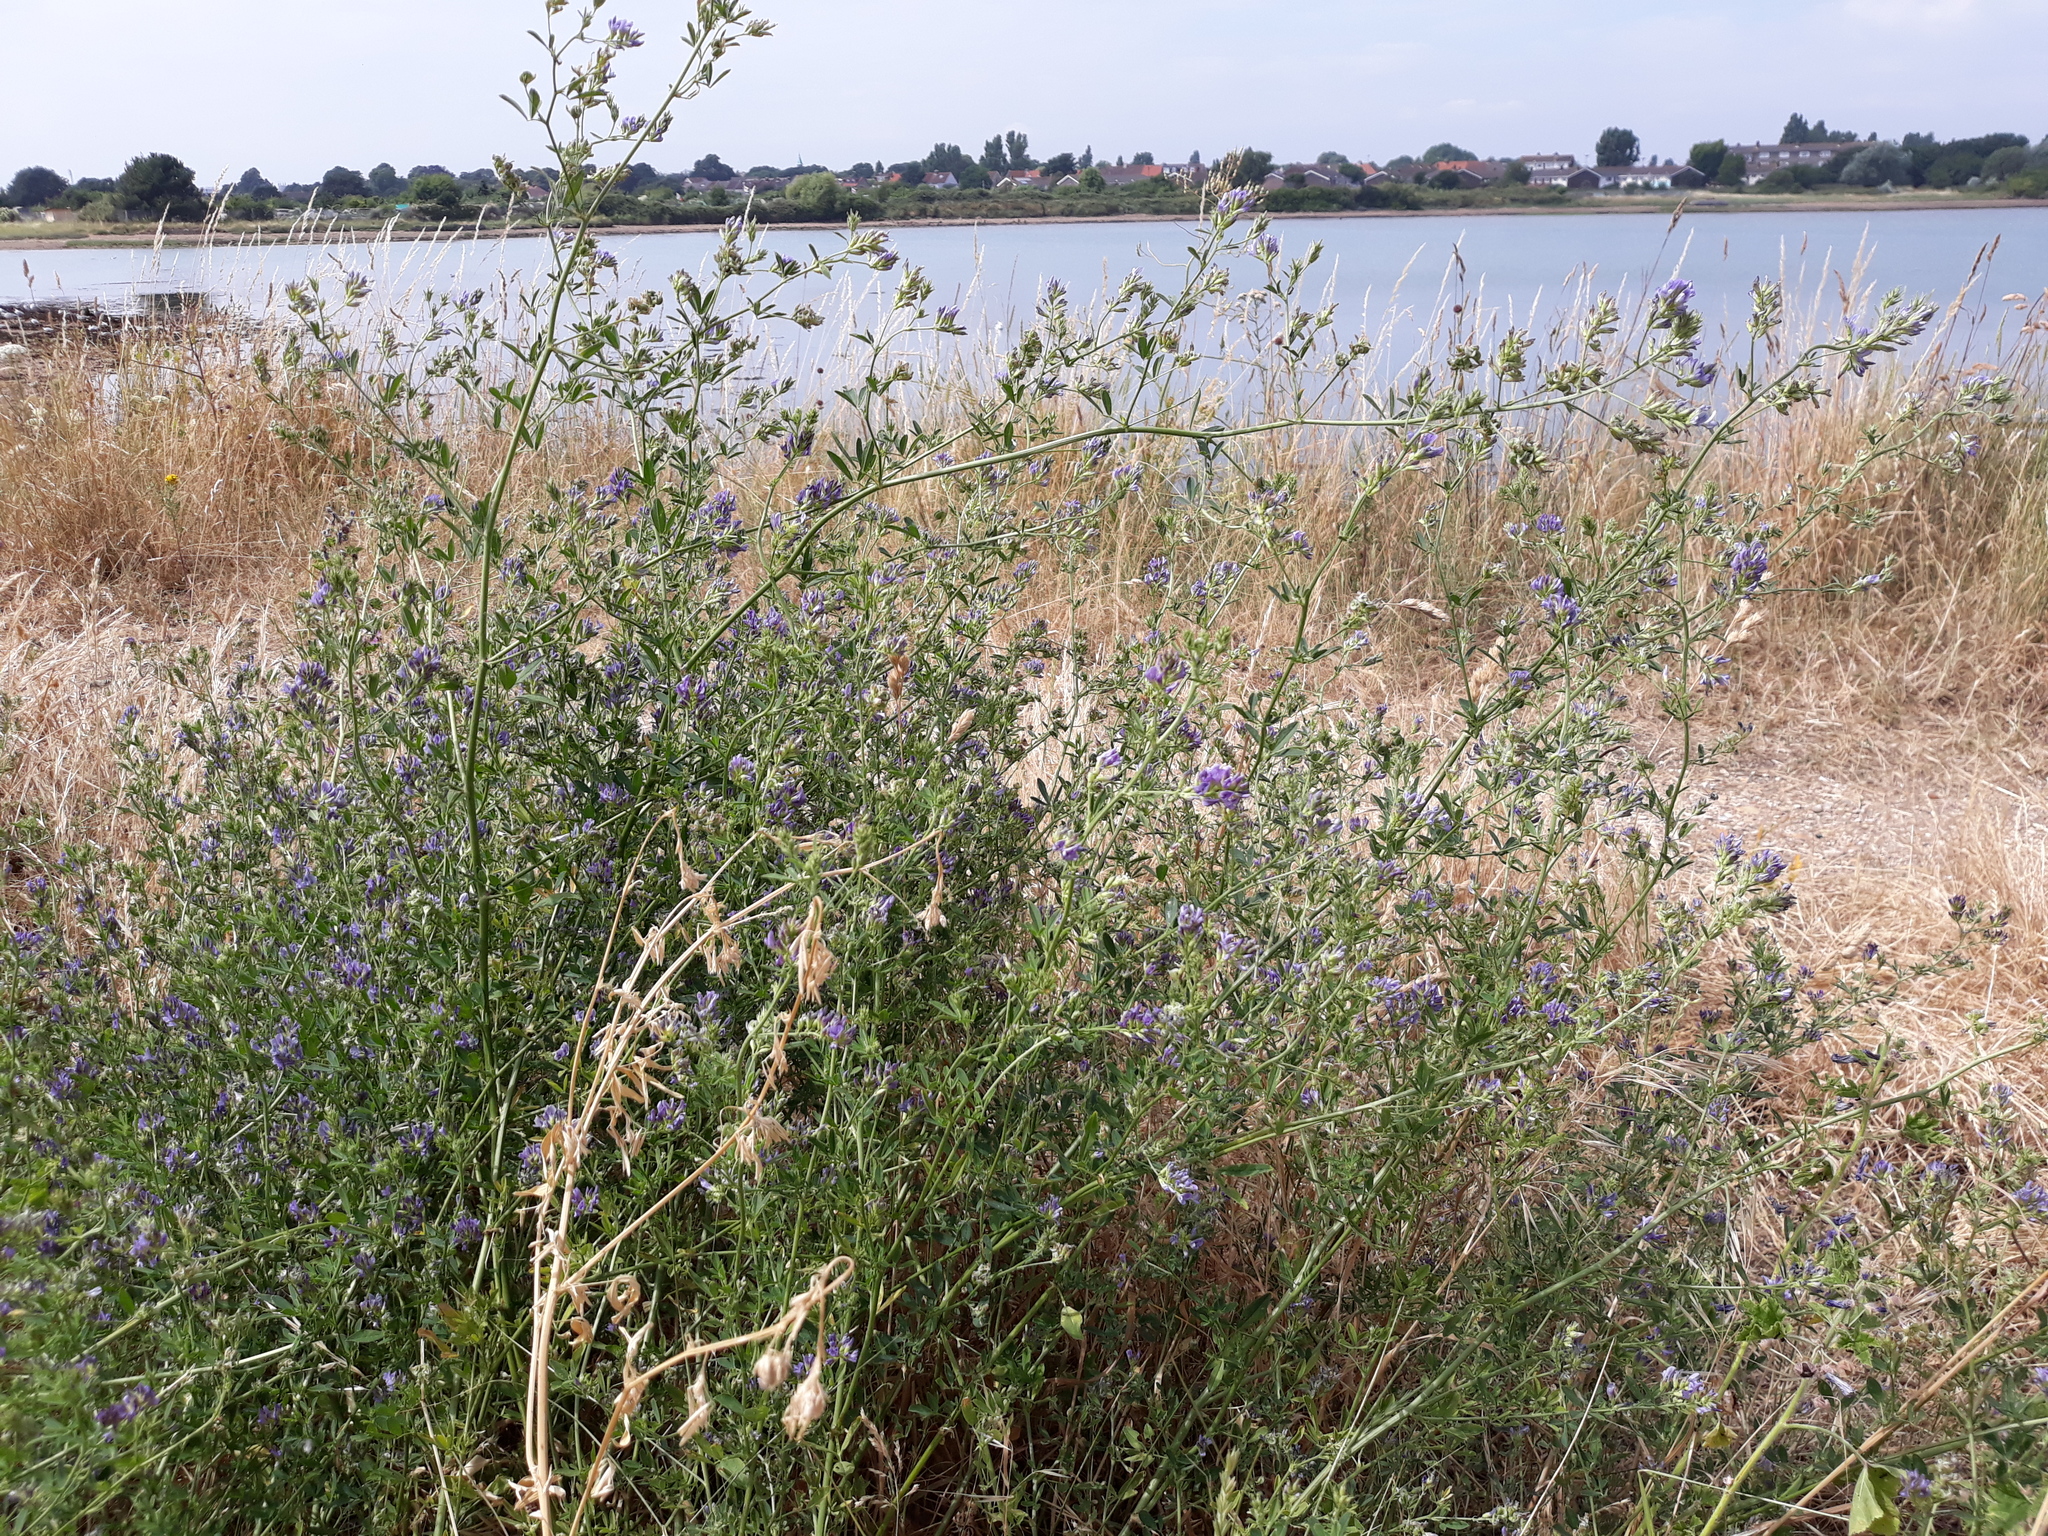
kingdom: Plantae
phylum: Tracheophyta
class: Magnoliopsida
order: Fabales
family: Fabaceae
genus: Medicago
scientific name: Medicago sativa
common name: Alfalfa
